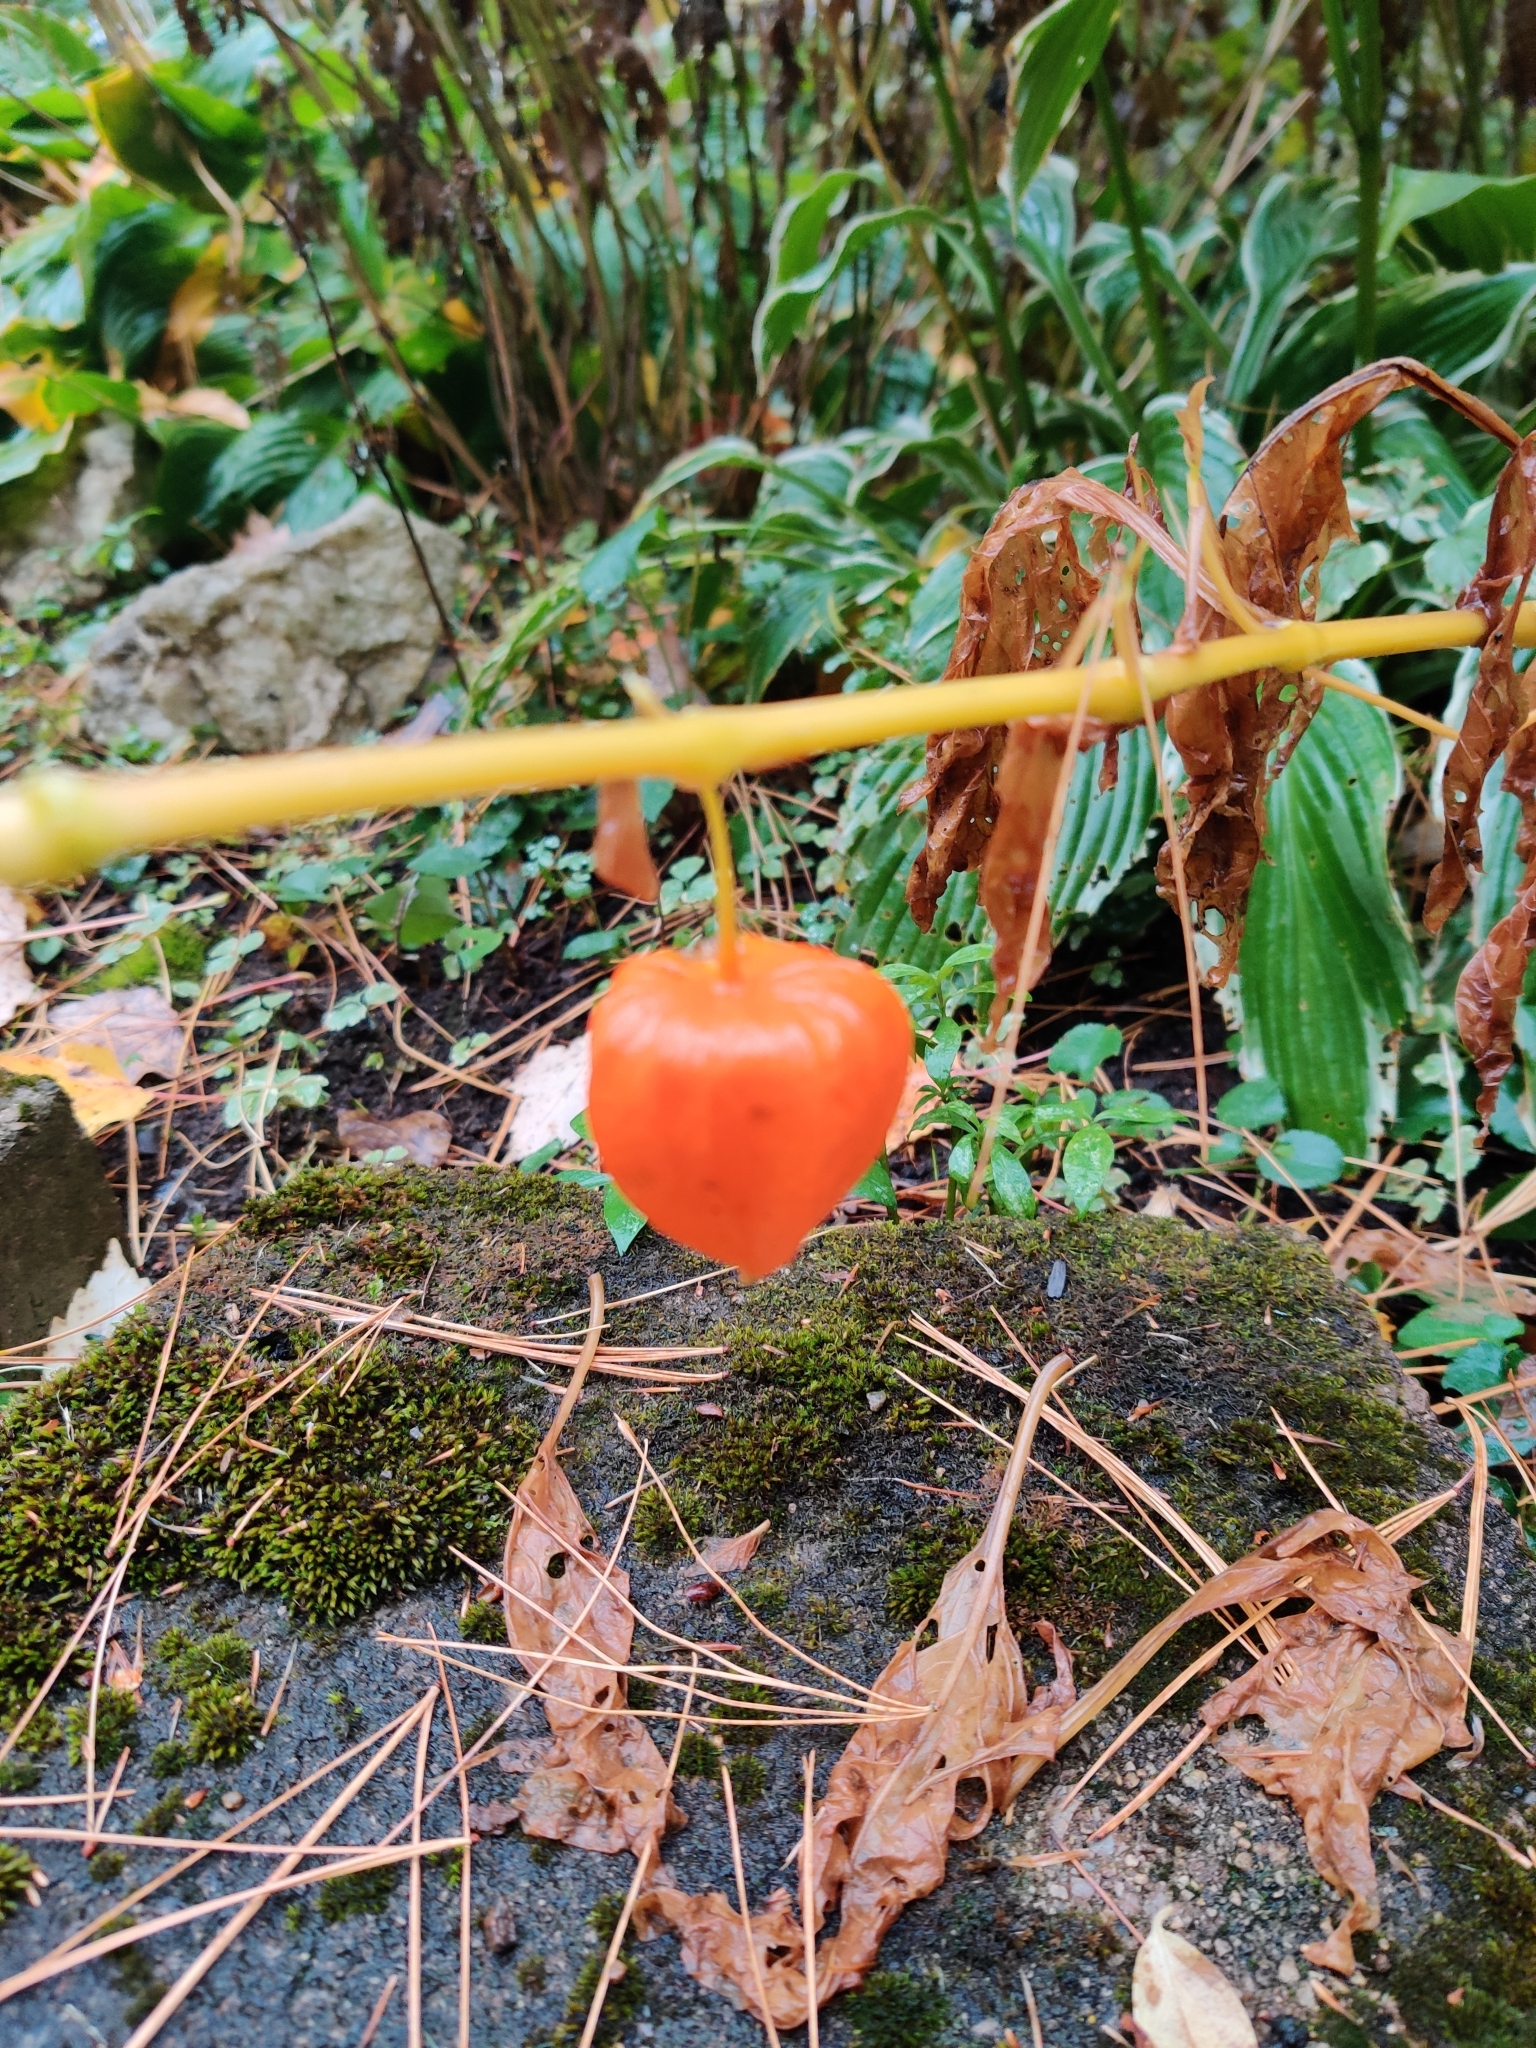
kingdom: Plantae
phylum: Tracheophyta
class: Magnoliopsida
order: Solanales
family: Solanaceae
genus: Alkekengi
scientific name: Alkekengi officinarum
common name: Japanese-lantern
